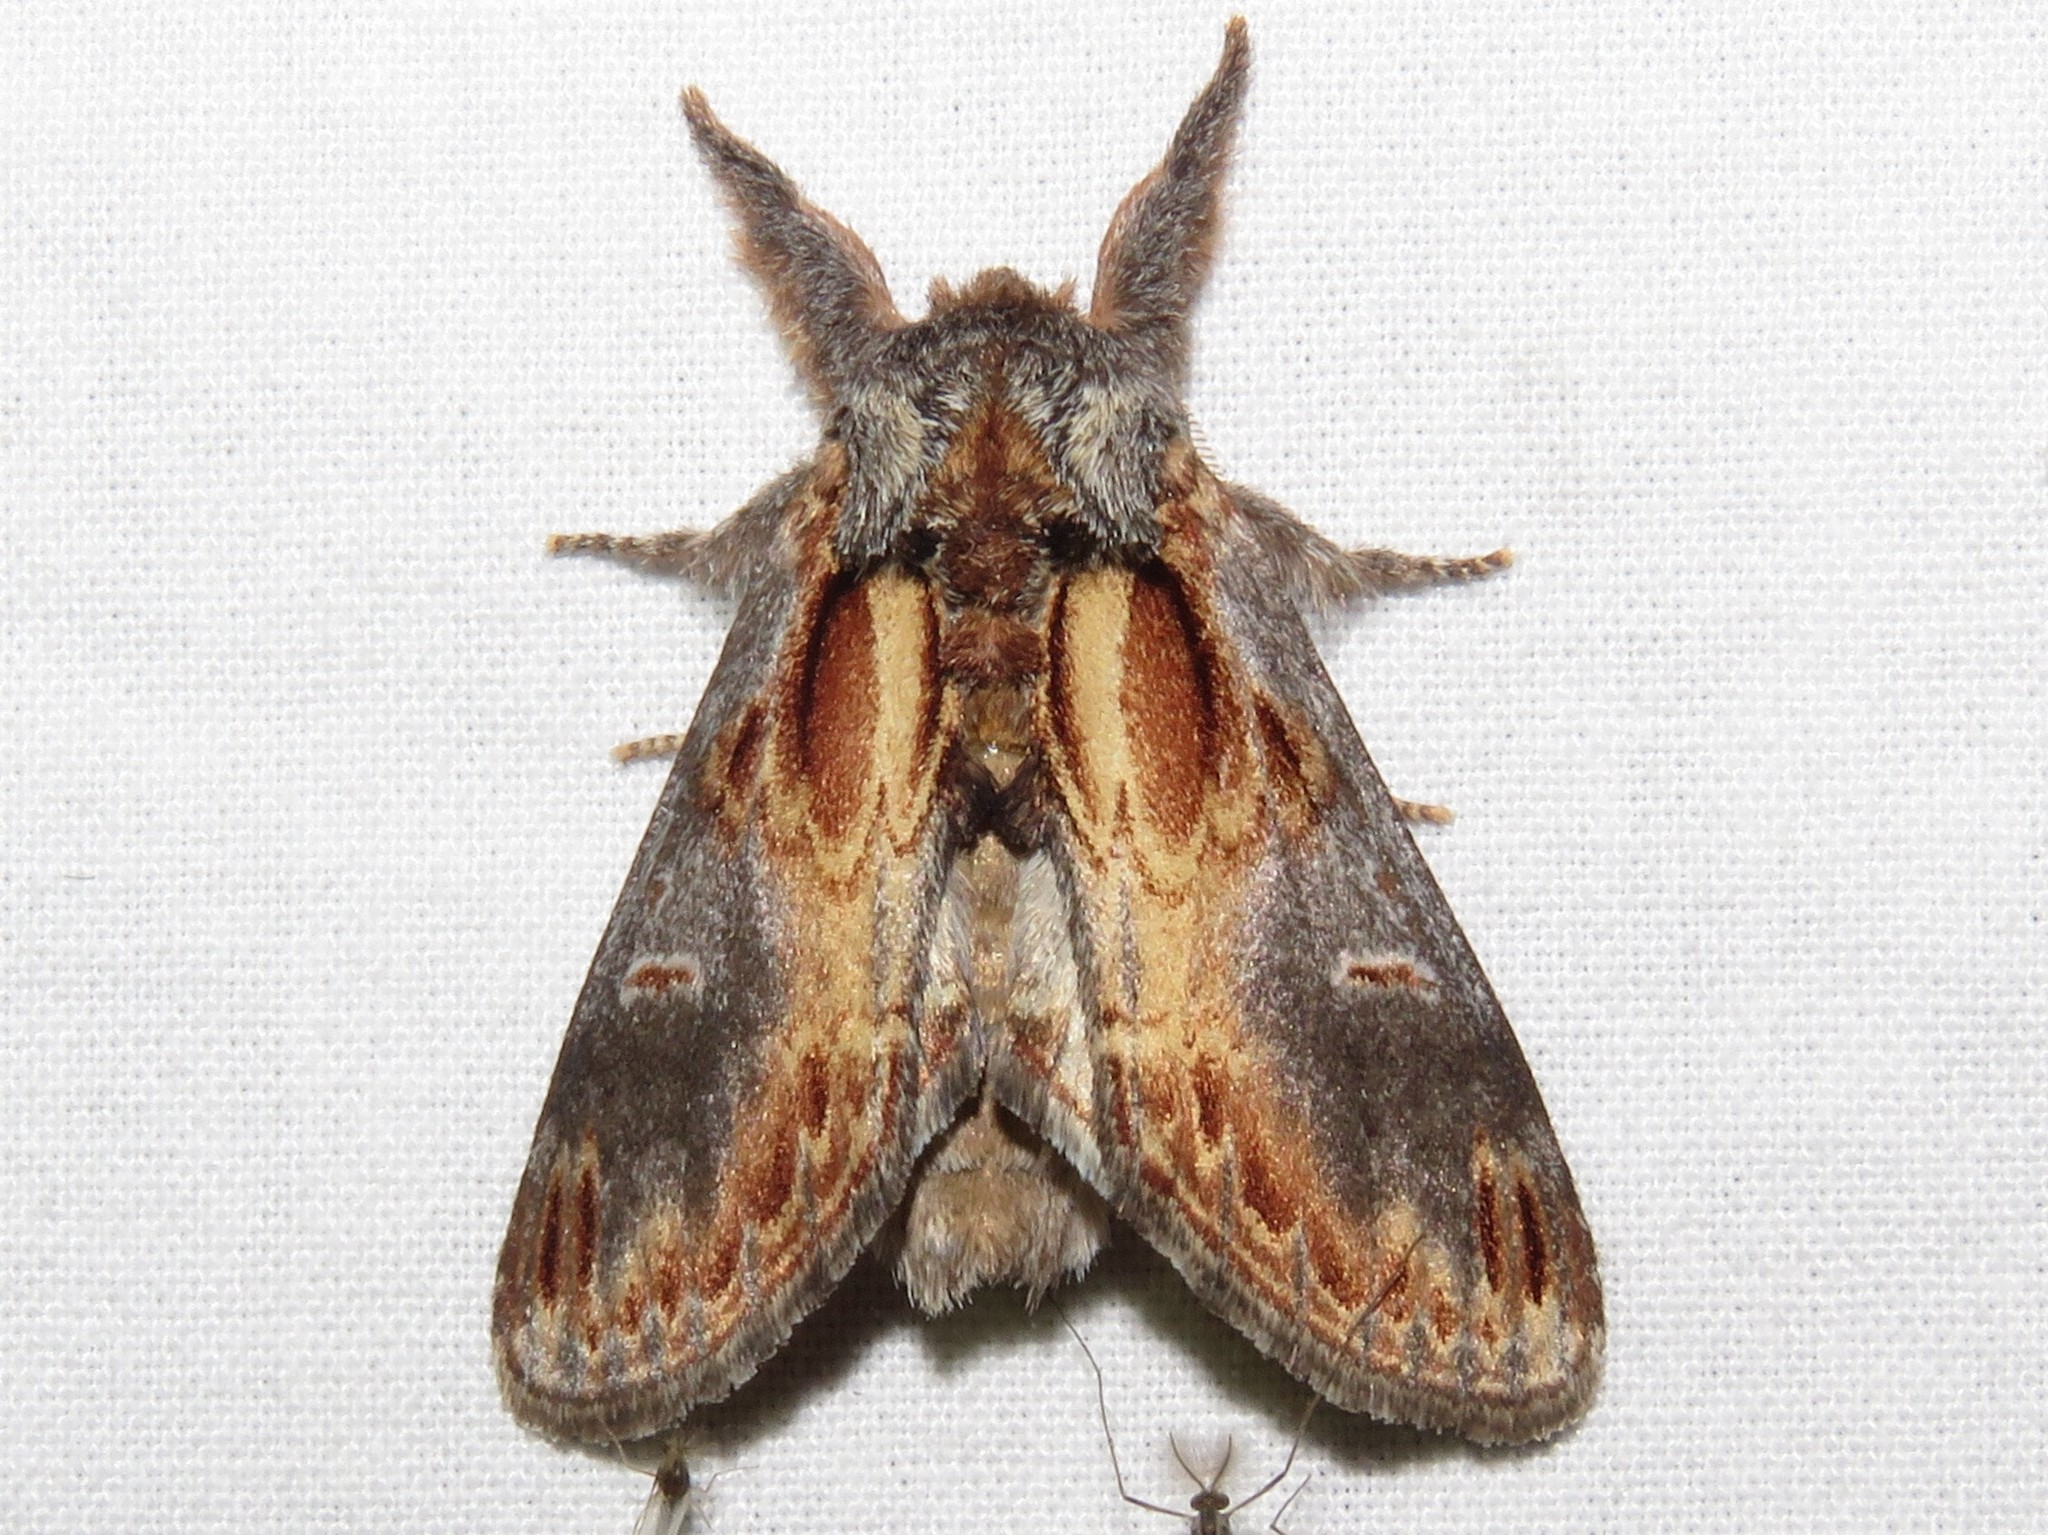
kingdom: Animalia
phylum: Arthropoda
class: Insecta
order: Lepidoptera
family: Notodontidae
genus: Notodonta
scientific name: Notodonta scitipennis
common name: Finned-willow prominent moth
